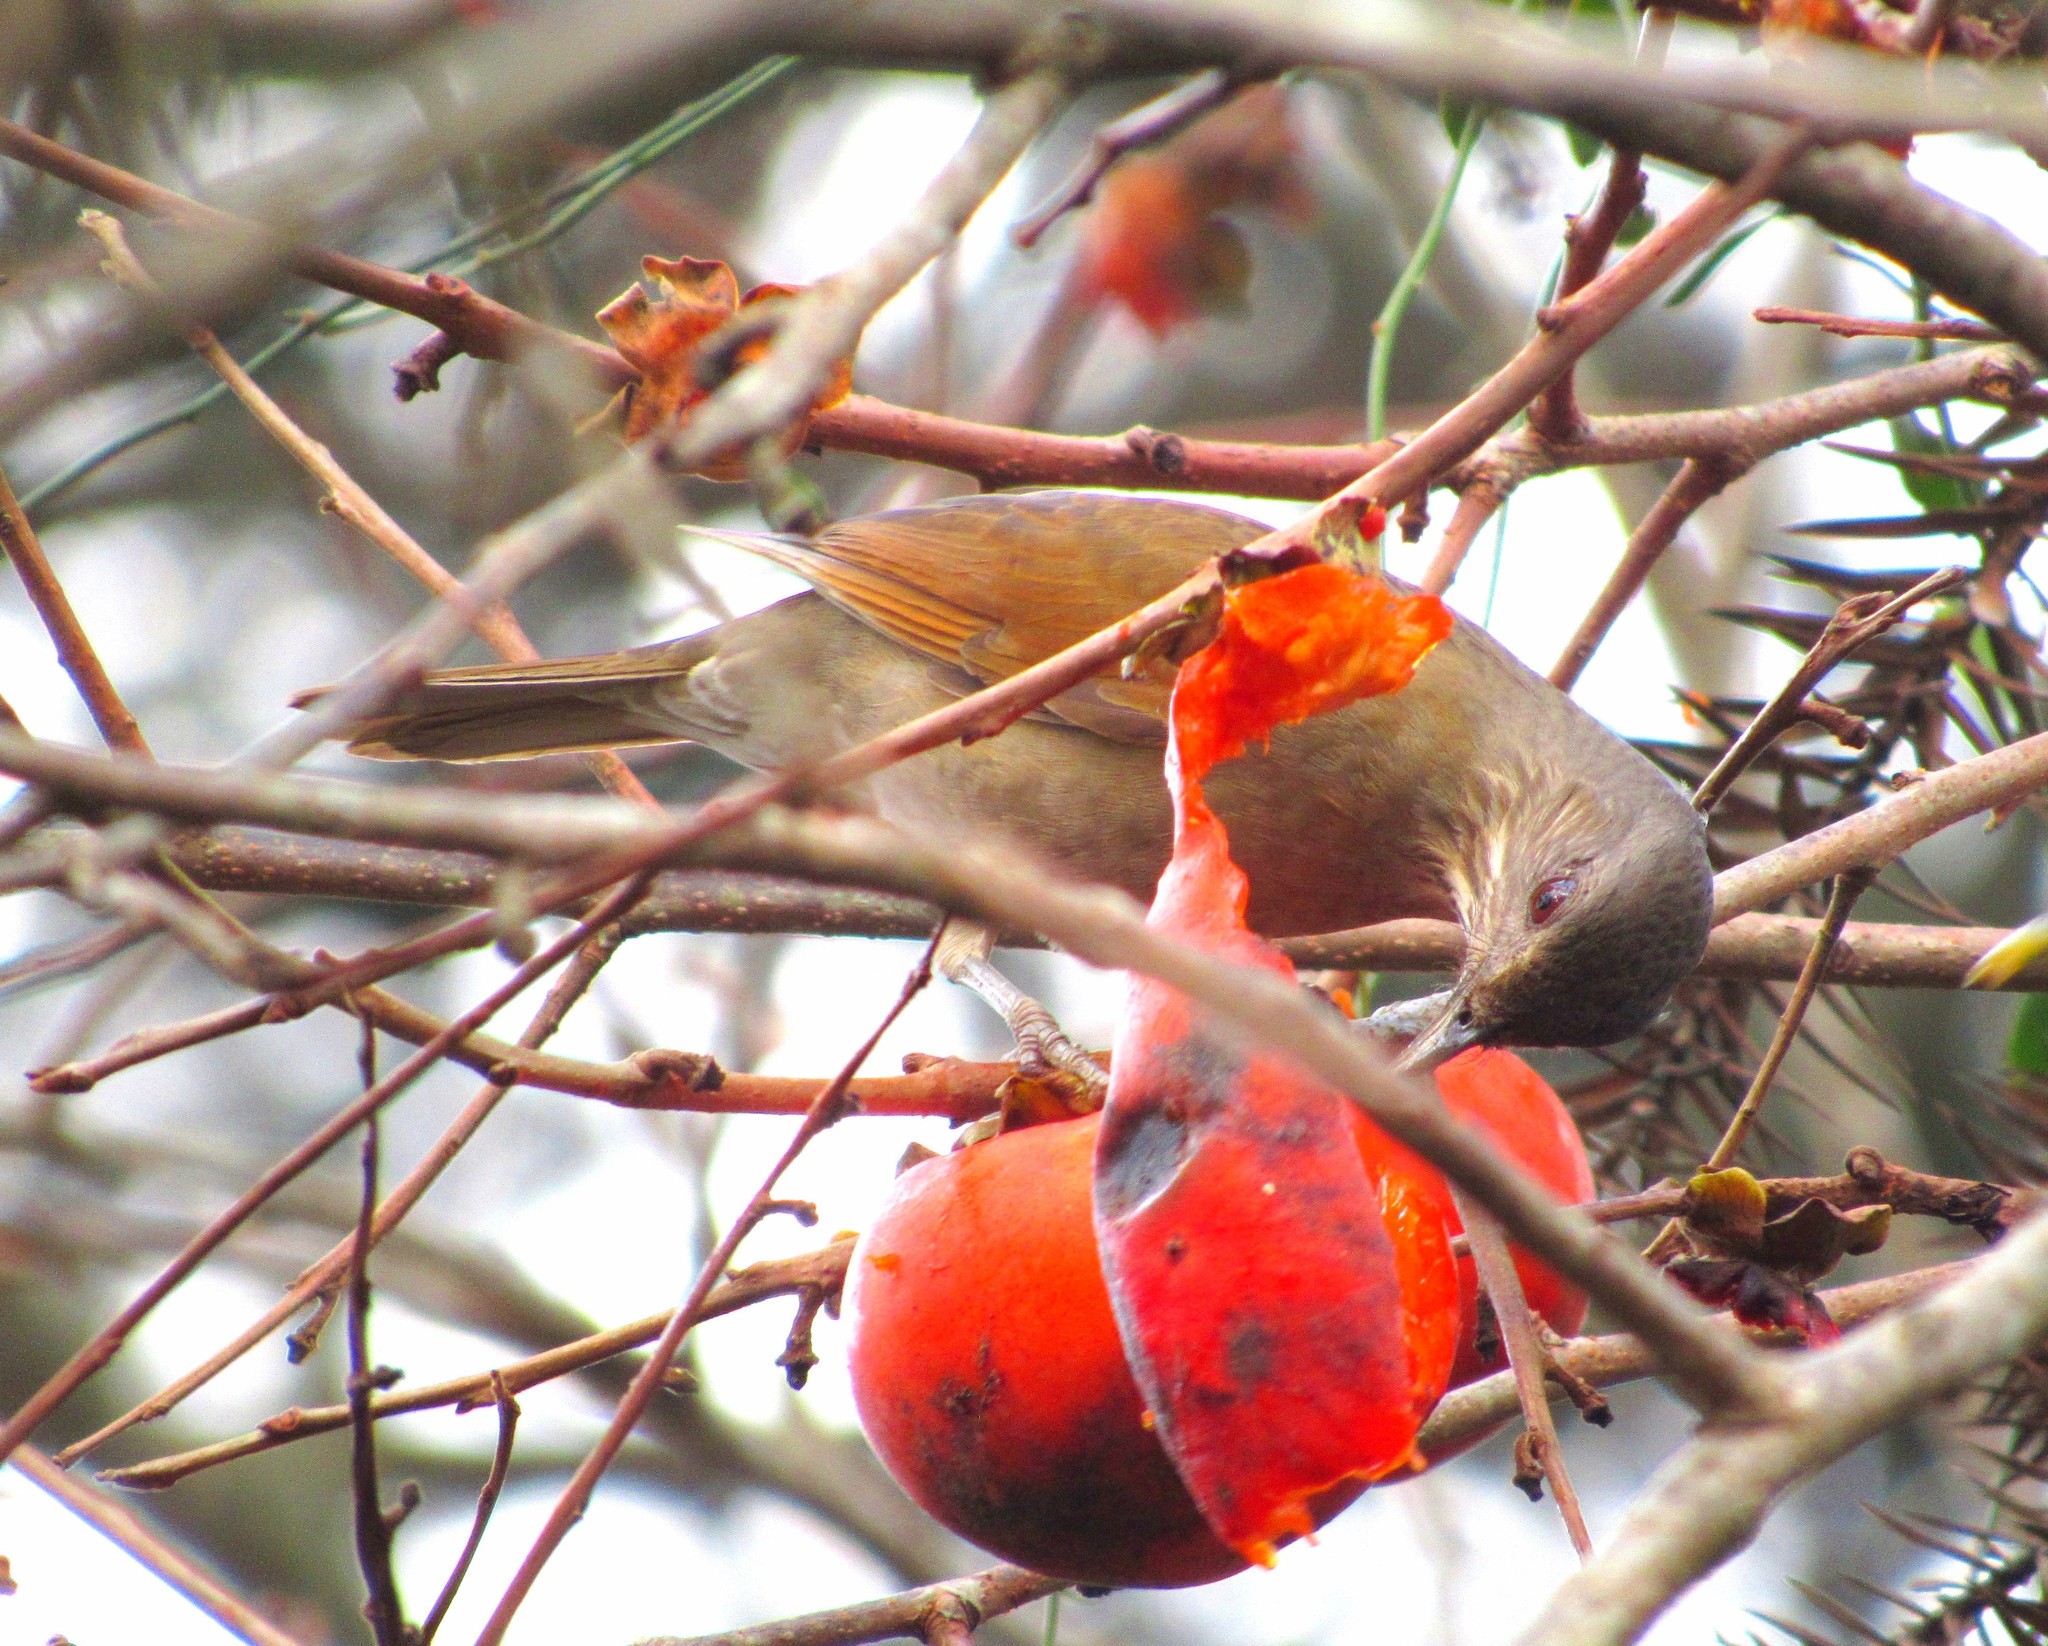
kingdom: Animalia
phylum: Chordata
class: Aves
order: Passeriformes
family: Turdidae
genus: Turdus
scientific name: Turdus leucomelas
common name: Pale-breasted thrush
